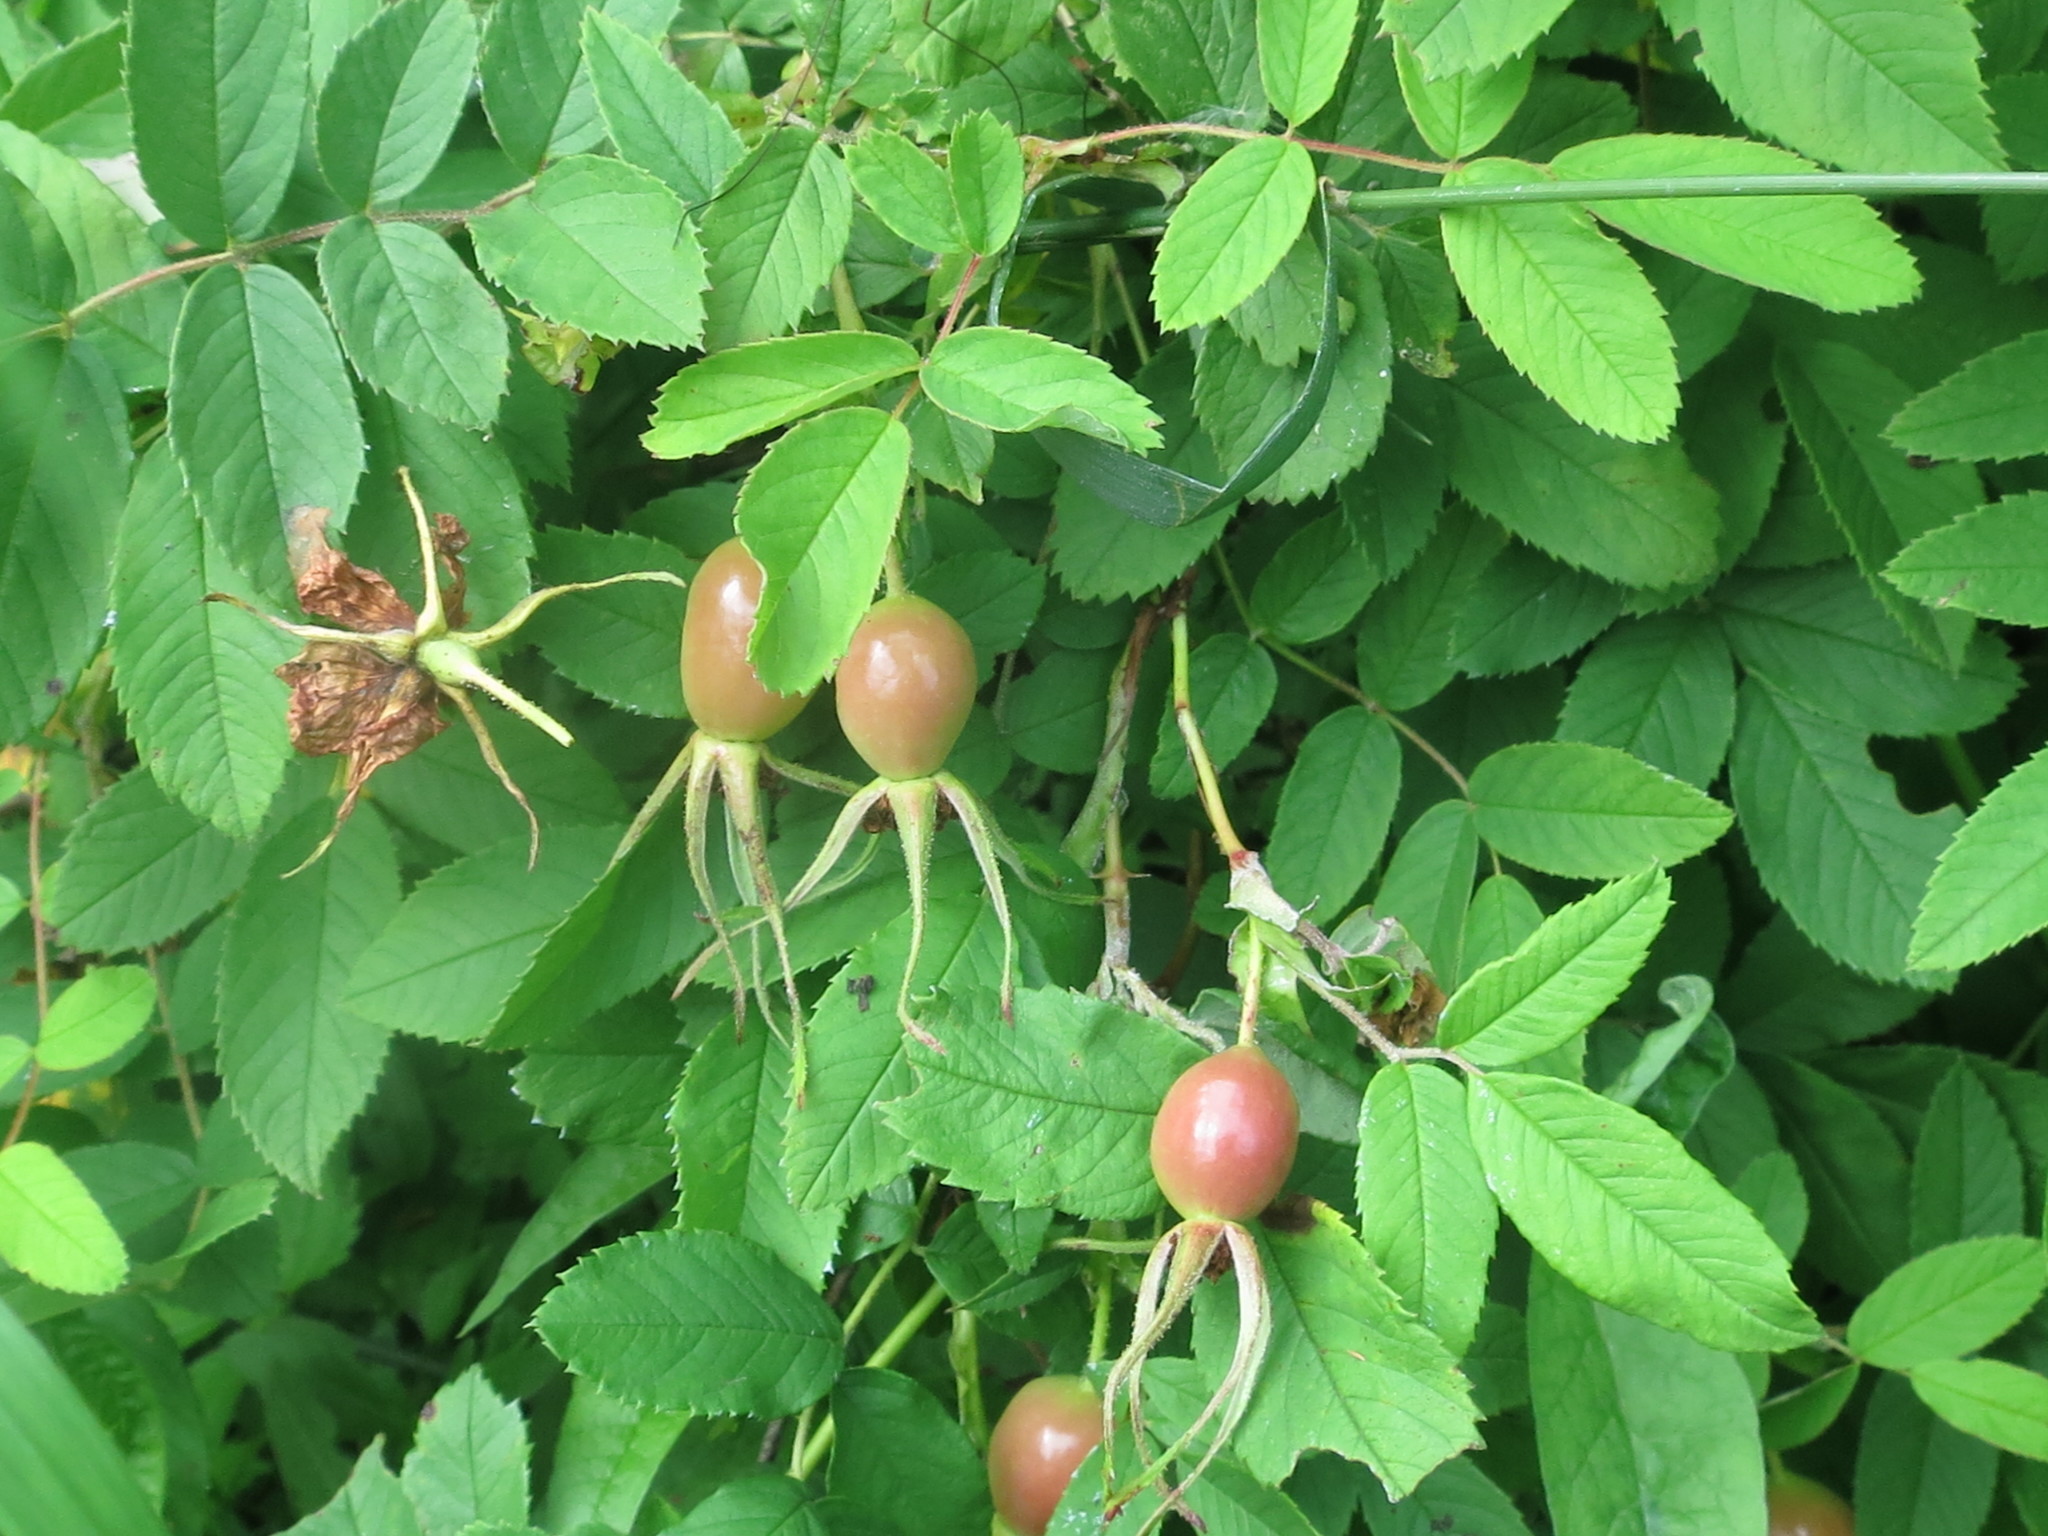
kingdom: Plantae
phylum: Tracheophyta
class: Magnoliopsida
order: Rosales
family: Rosaceae
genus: Rosa
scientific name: Rosa davurica
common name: Amur rose
